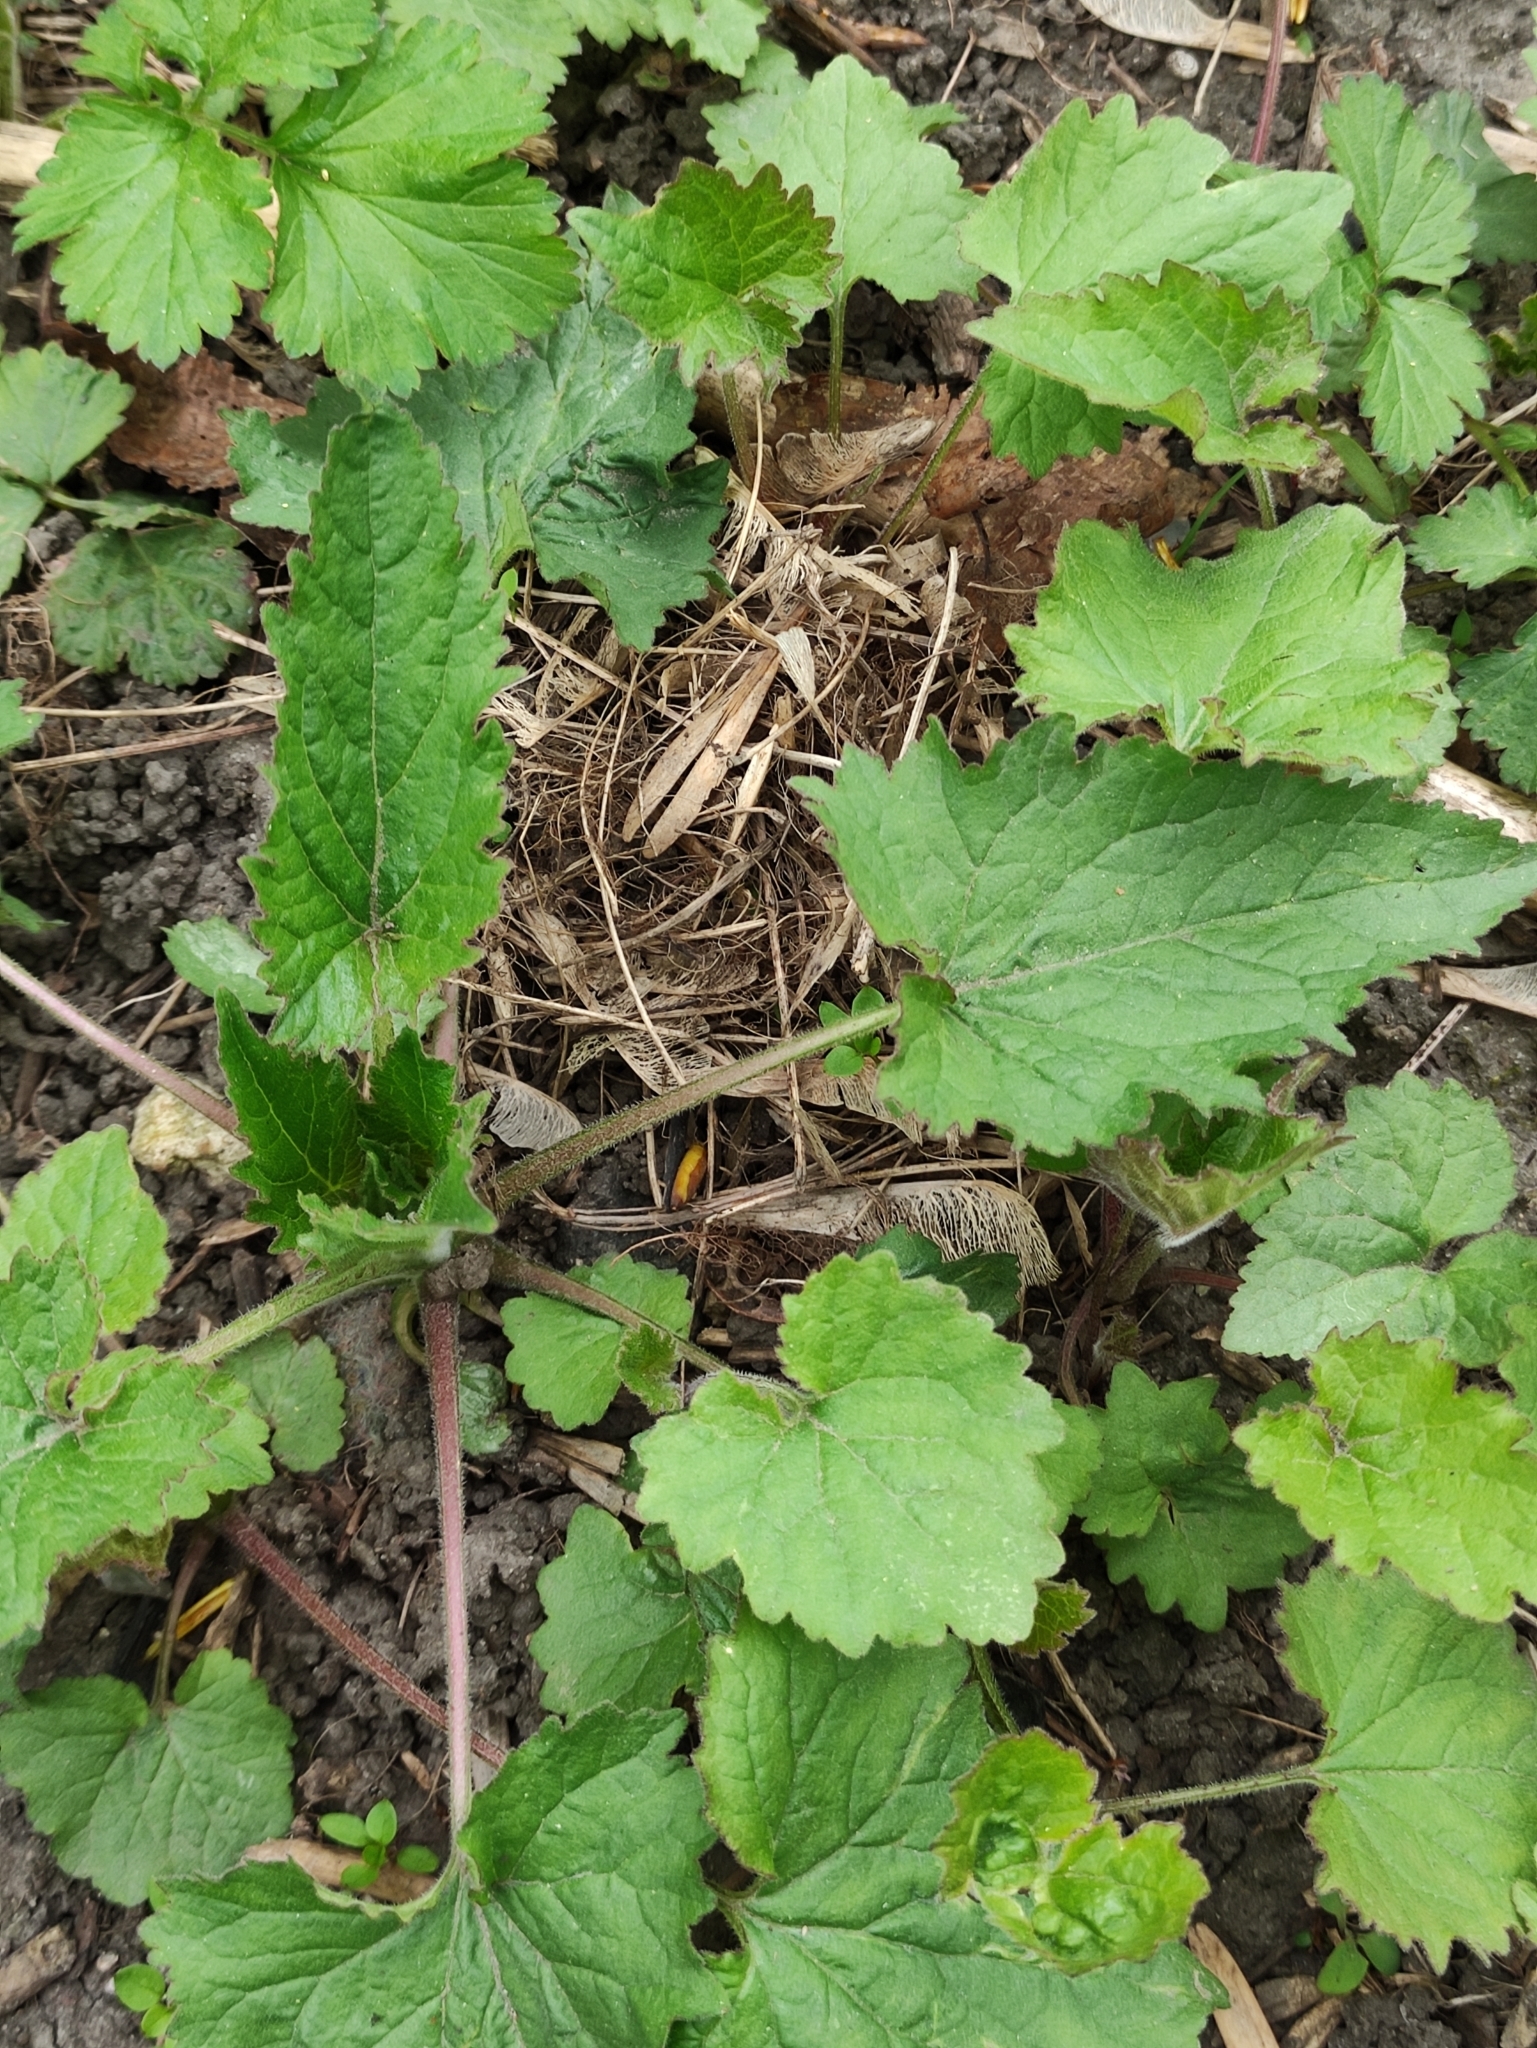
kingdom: Plantae
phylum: Tracheophyta
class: Magnoliopsida
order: Asterales
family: Campanulaceae
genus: Campanula
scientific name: Campanula trachelium
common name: Nettle-leaved bellflower
